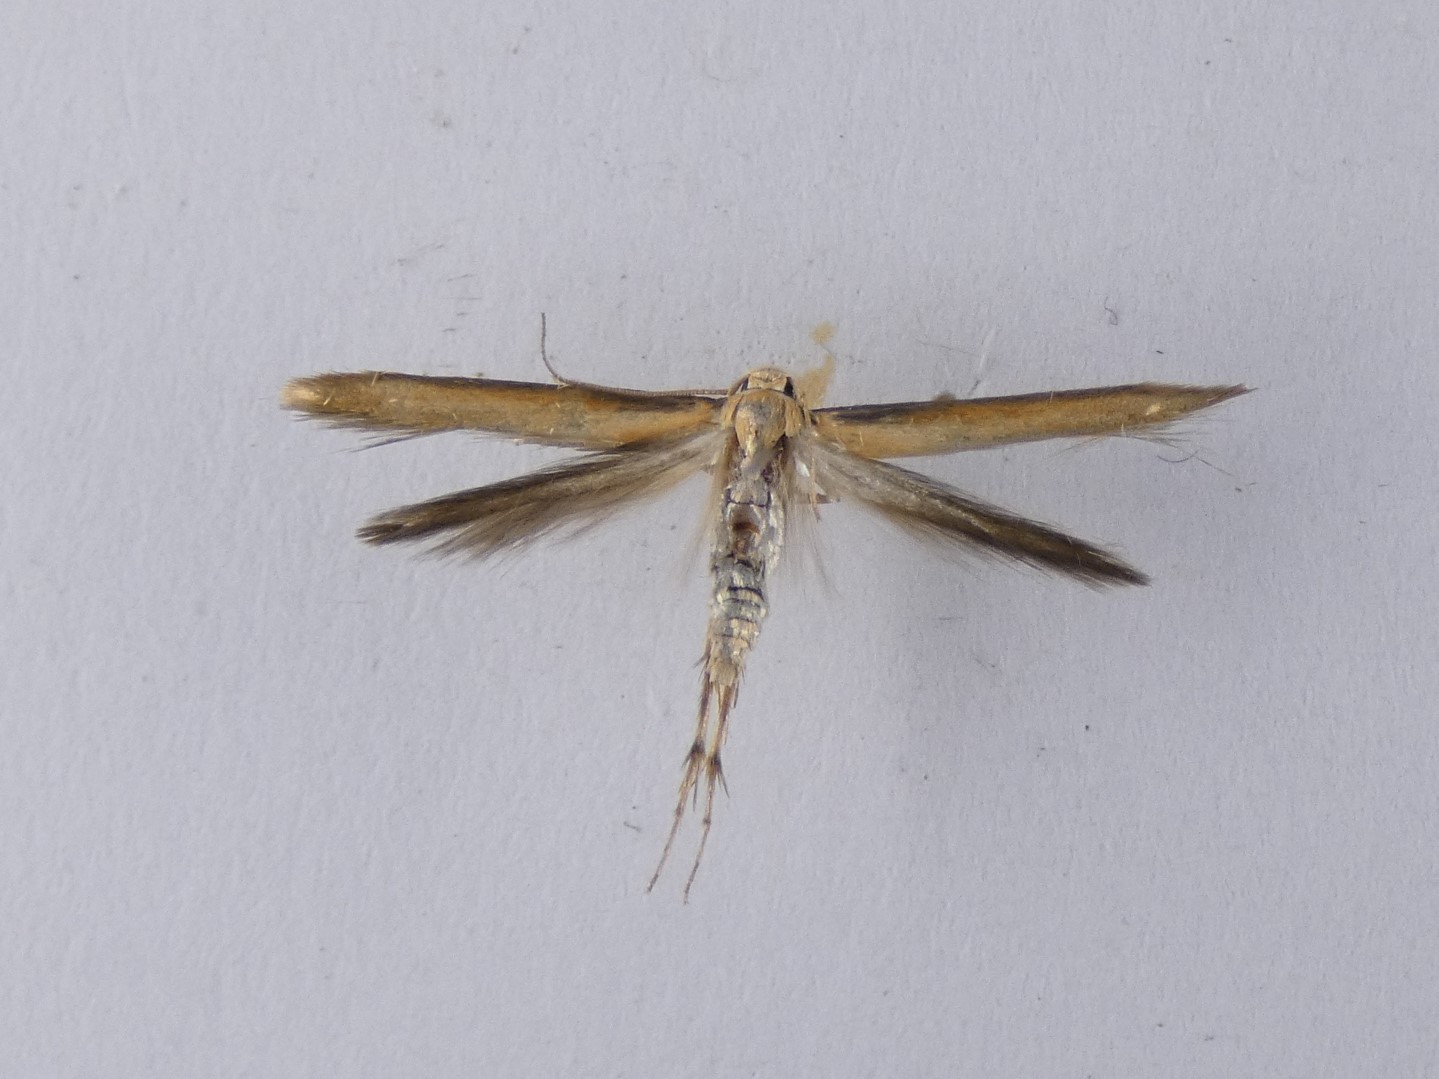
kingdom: Animalia
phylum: Arthropoda
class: Insecta
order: Lepidoptera
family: Stathmopodidae
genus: Stathmopoda
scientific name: Stathmopoda skelloni
